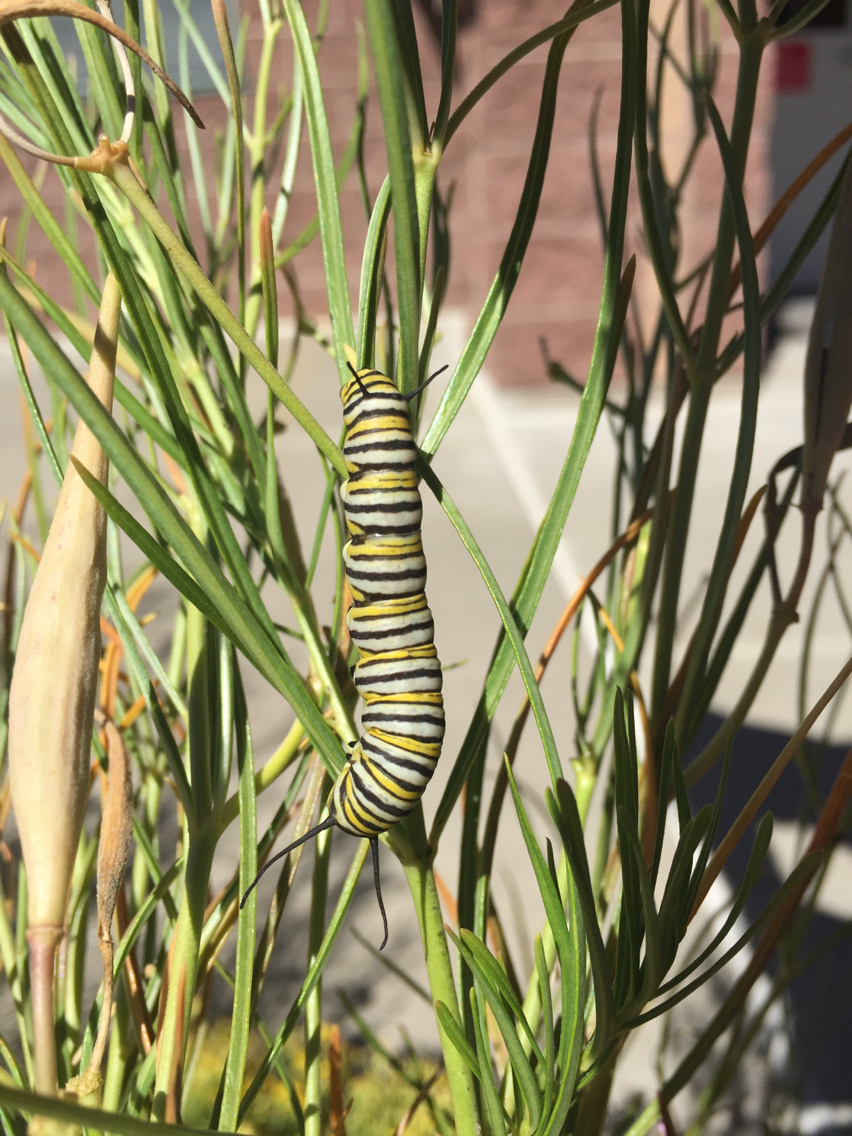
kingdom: Animalia
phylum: Arthropoda
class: Insecta
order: Lepidoptera
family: Nymphalidae
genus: Danaus
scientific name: Danaus plexippus
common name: Monarch
